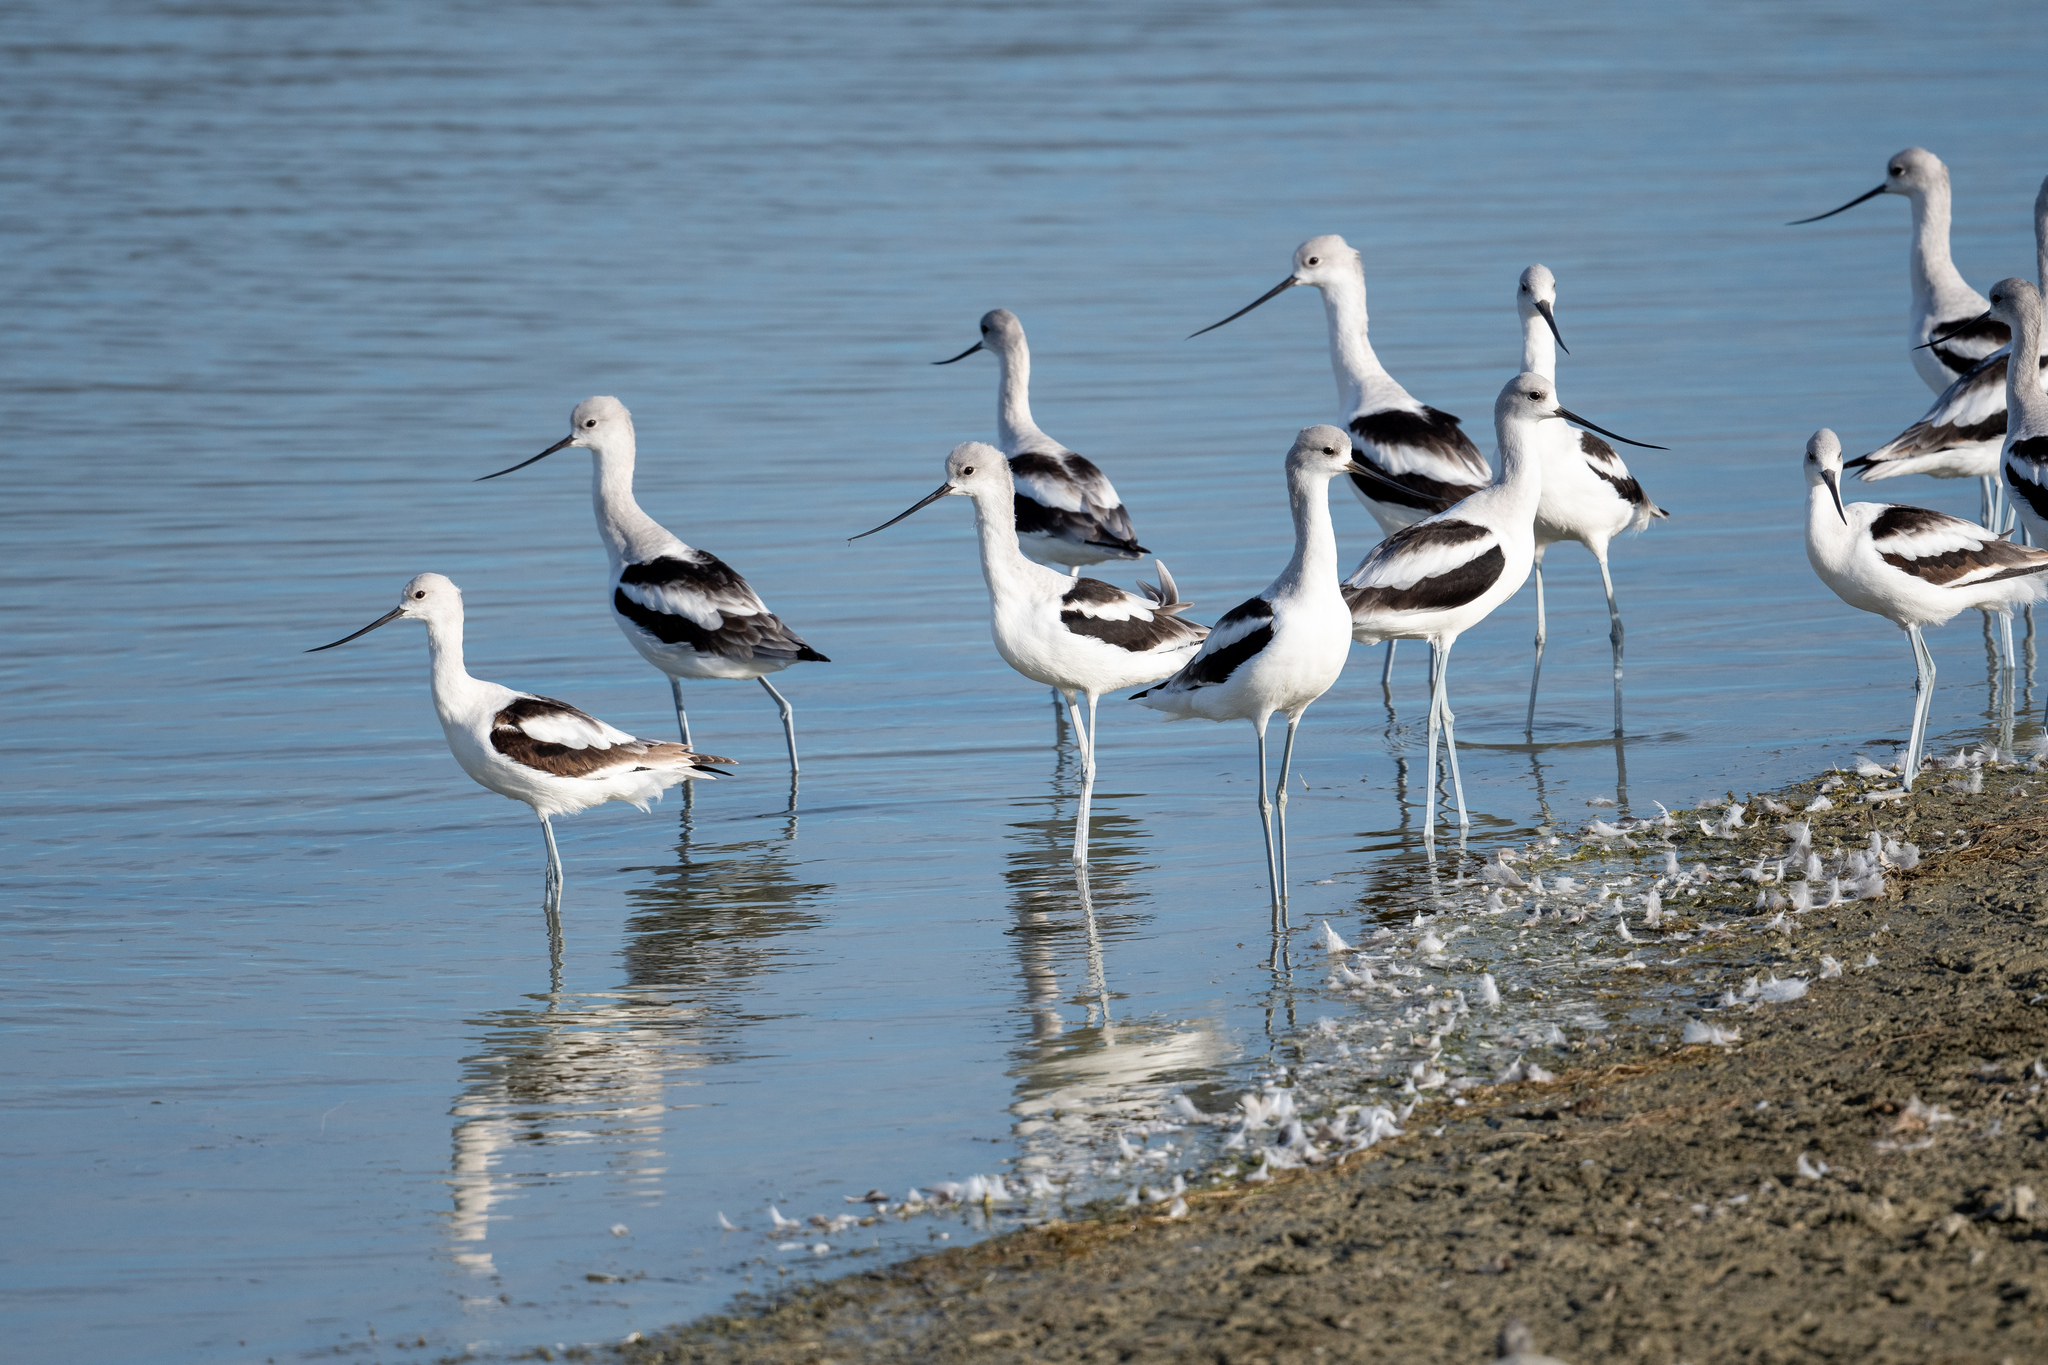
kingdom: Animalia
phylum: Chordata
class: Aves
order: Charadriiformes
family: Recurvirostridae
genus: Recurvirostra
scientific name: Recurvirostra americana
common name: American avocet
